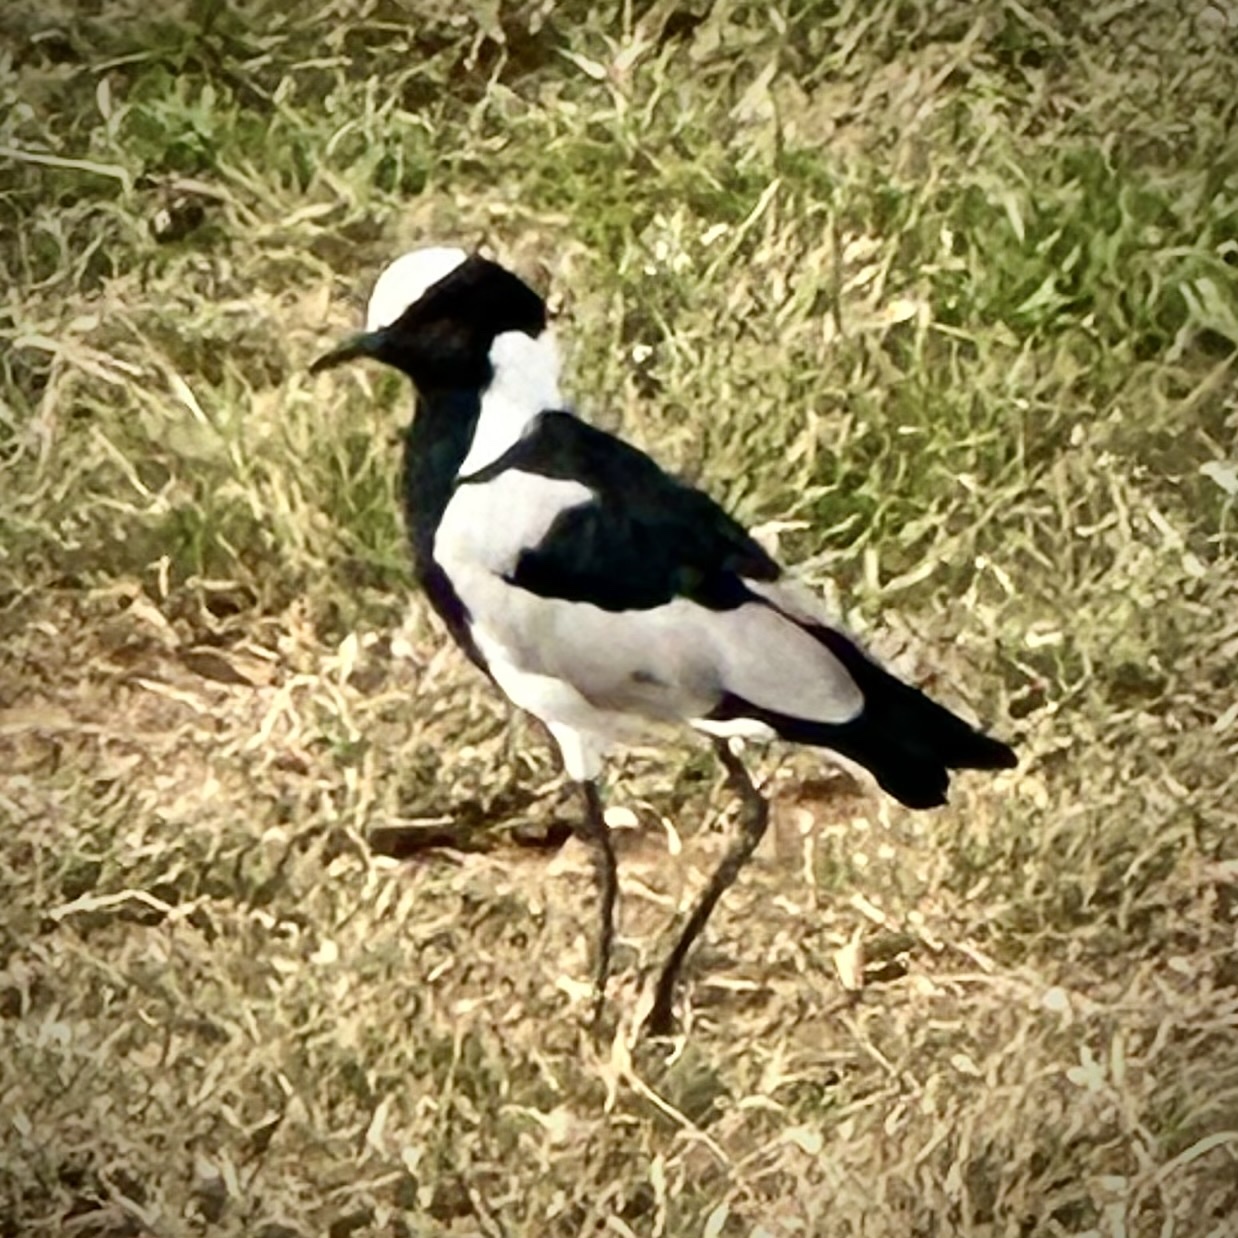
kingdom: Animalia
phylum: Chordata
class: Aves
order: Charadriiformes
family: Charadriidae
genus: Vanellus
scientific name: Vanellus armatus
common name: Blacksmith lapwing
